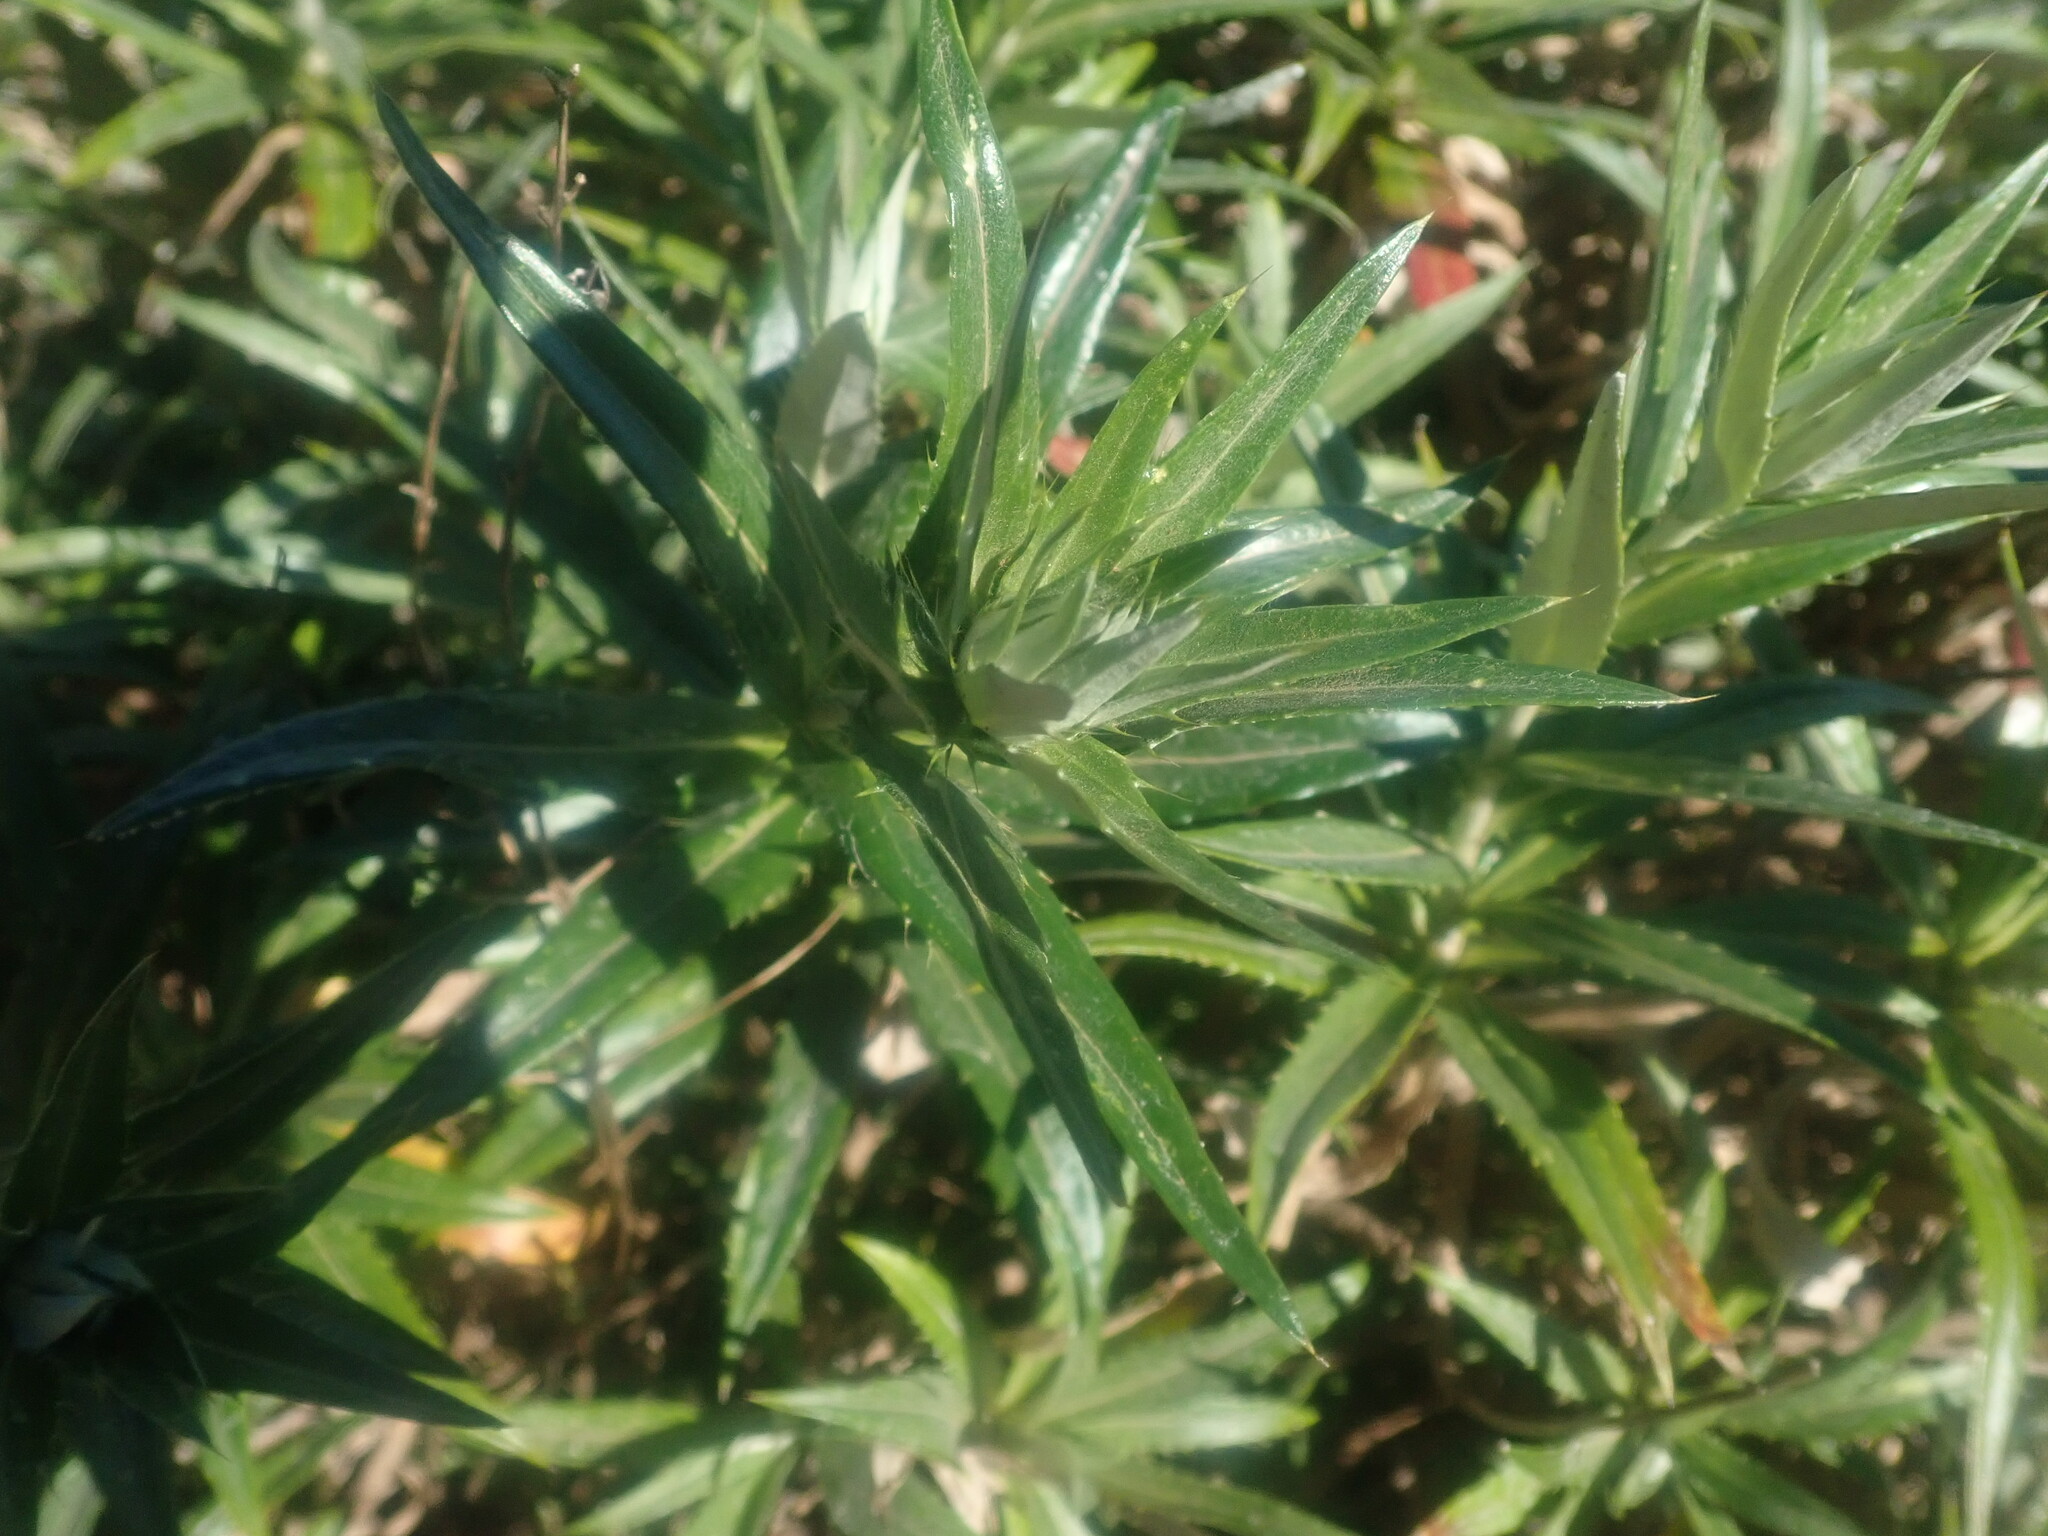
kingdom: Plantae
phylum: Tracheophyta
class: Magnoliopsida
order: Asterales
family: Asteraceae
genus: Carlina
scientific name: Carlina salicifolia
